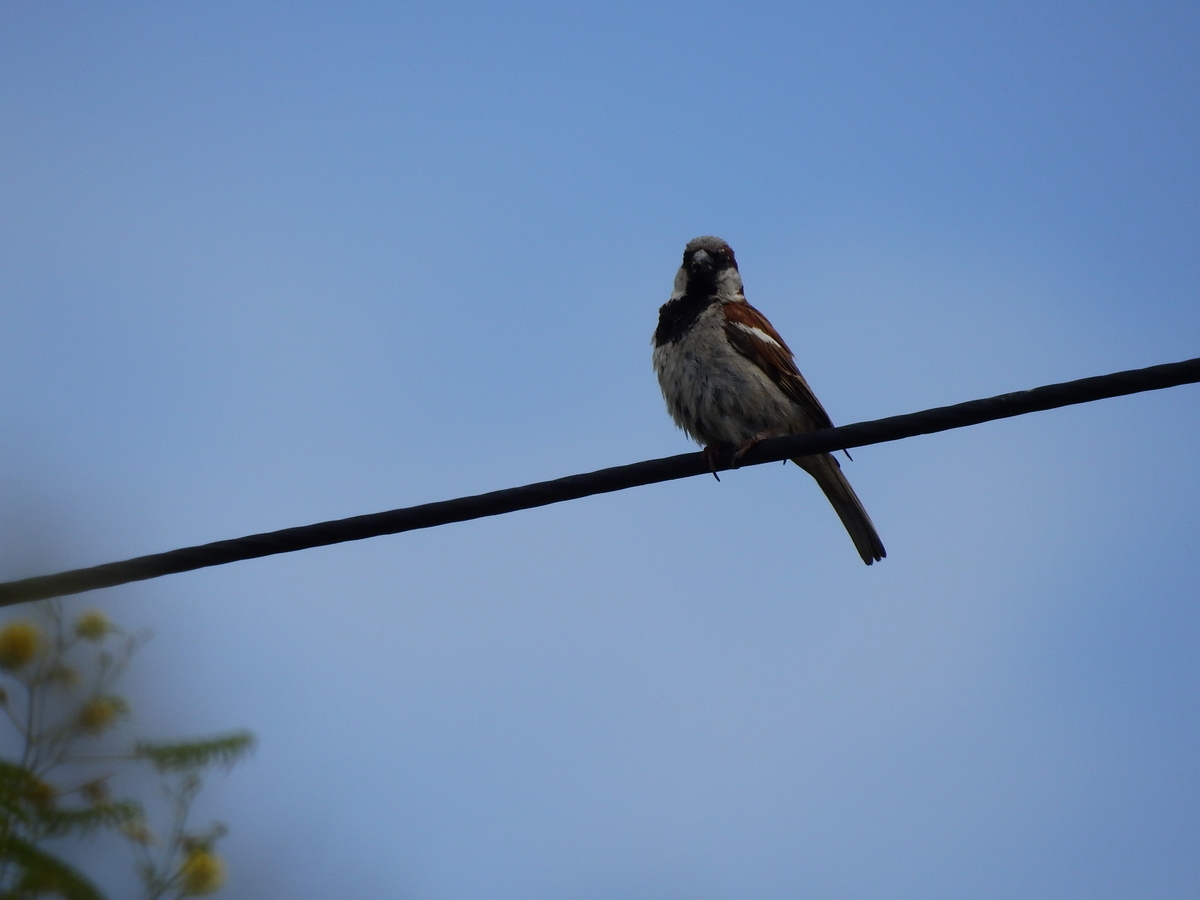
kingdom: Animalia
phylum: Chordata
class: Aves
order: Passeriformes
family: Passeridae
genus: Passer
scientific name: Passer domesticus
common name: House sparrow
